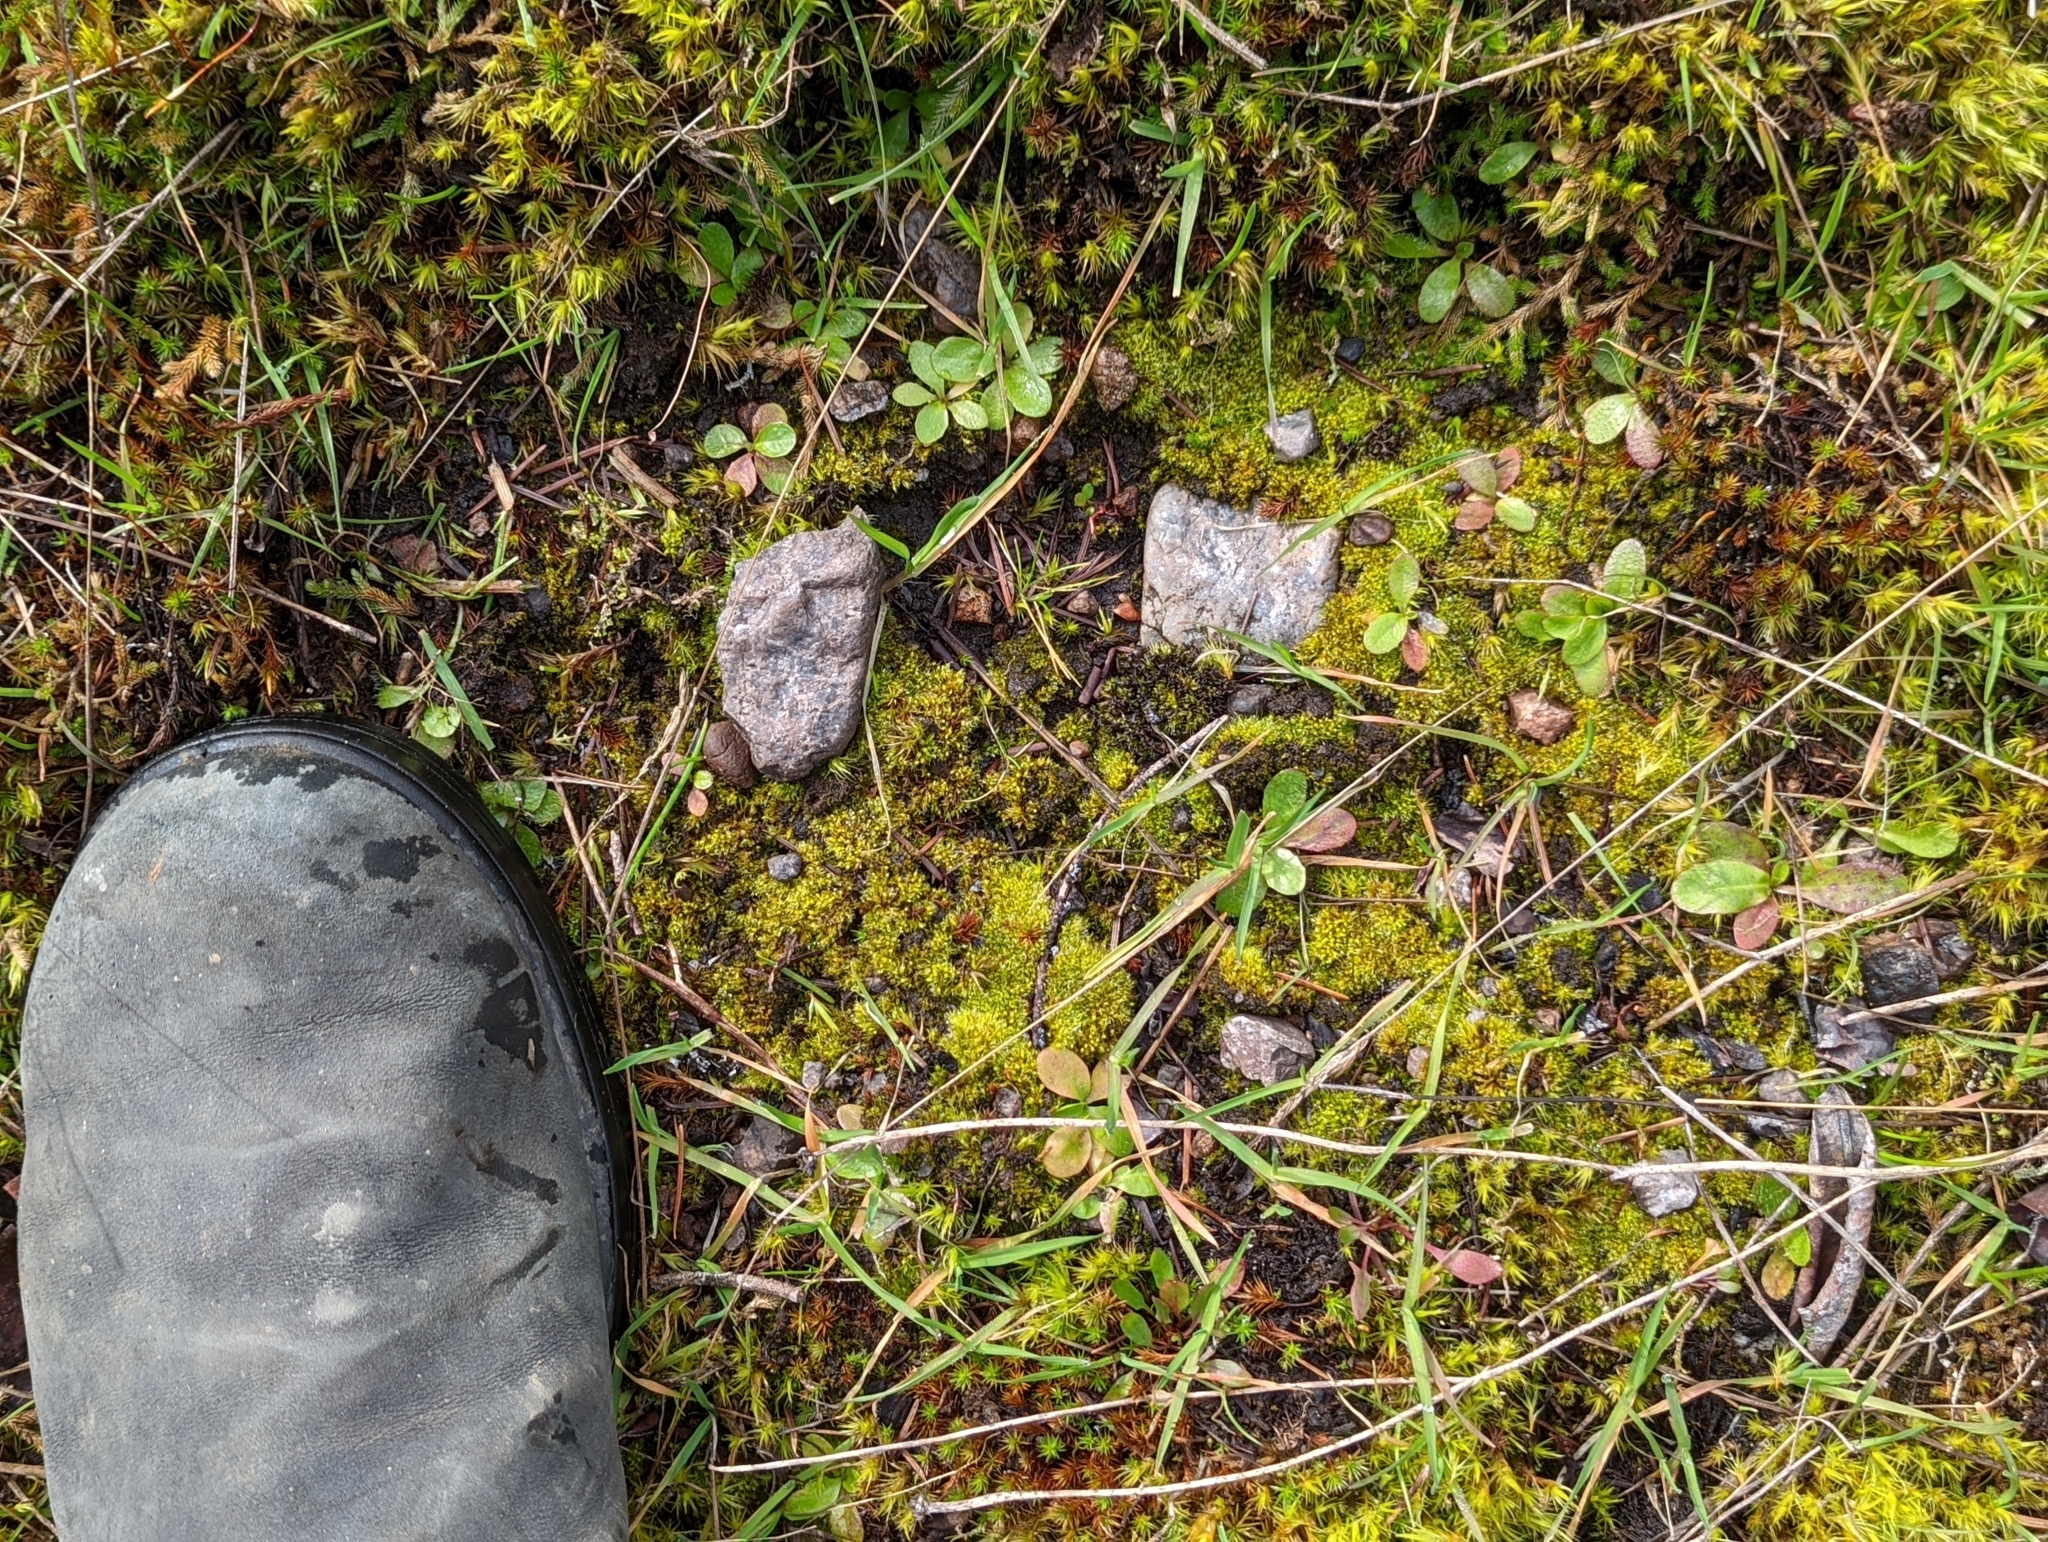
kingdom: Plantae
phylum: Bryophyta
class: Bryopsida
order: Dicranales
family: Ditrichaceae
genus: Pleuridium
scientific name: Pleuridium acuminatum
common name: Taper-leaved earth-moss
